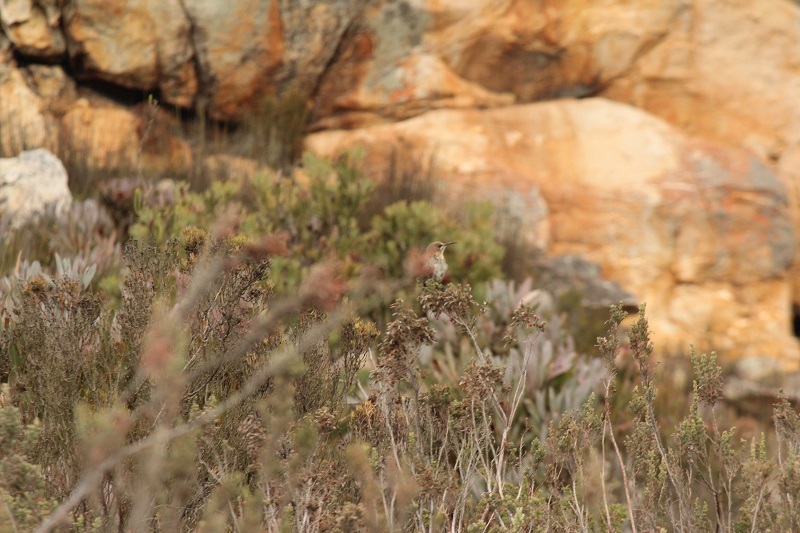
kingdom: Animalia
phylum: Chordata
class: Aves
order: Passeriformes
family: Promeropidae
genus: Promerops
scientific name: Promerops cafer
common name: Cape sugarbird
